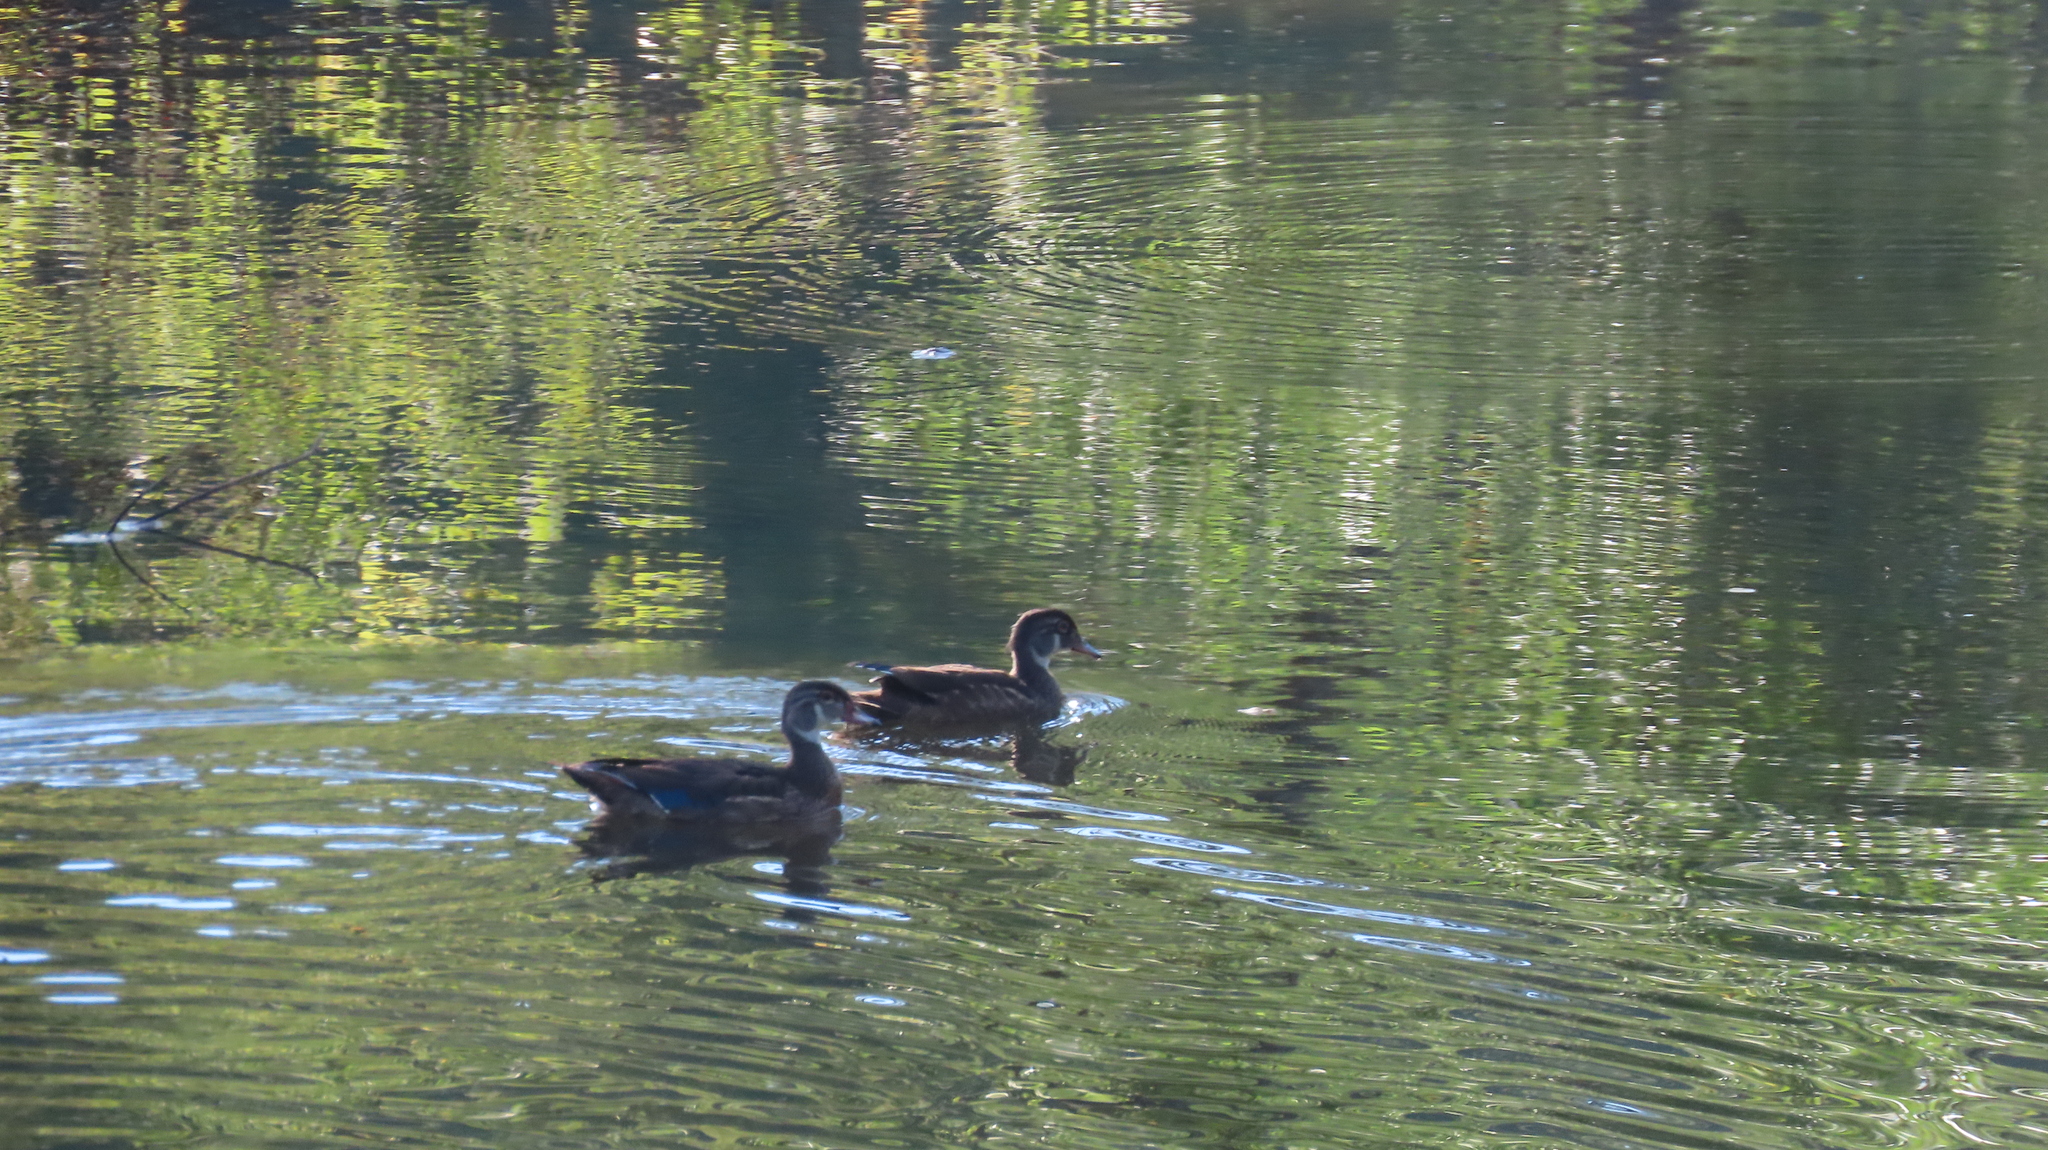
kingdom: Animalia
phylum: Chordata
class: Aves
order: Anseriformes
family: Anatidae
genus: Aix
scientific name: Aix sponsa
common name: Wood duck
